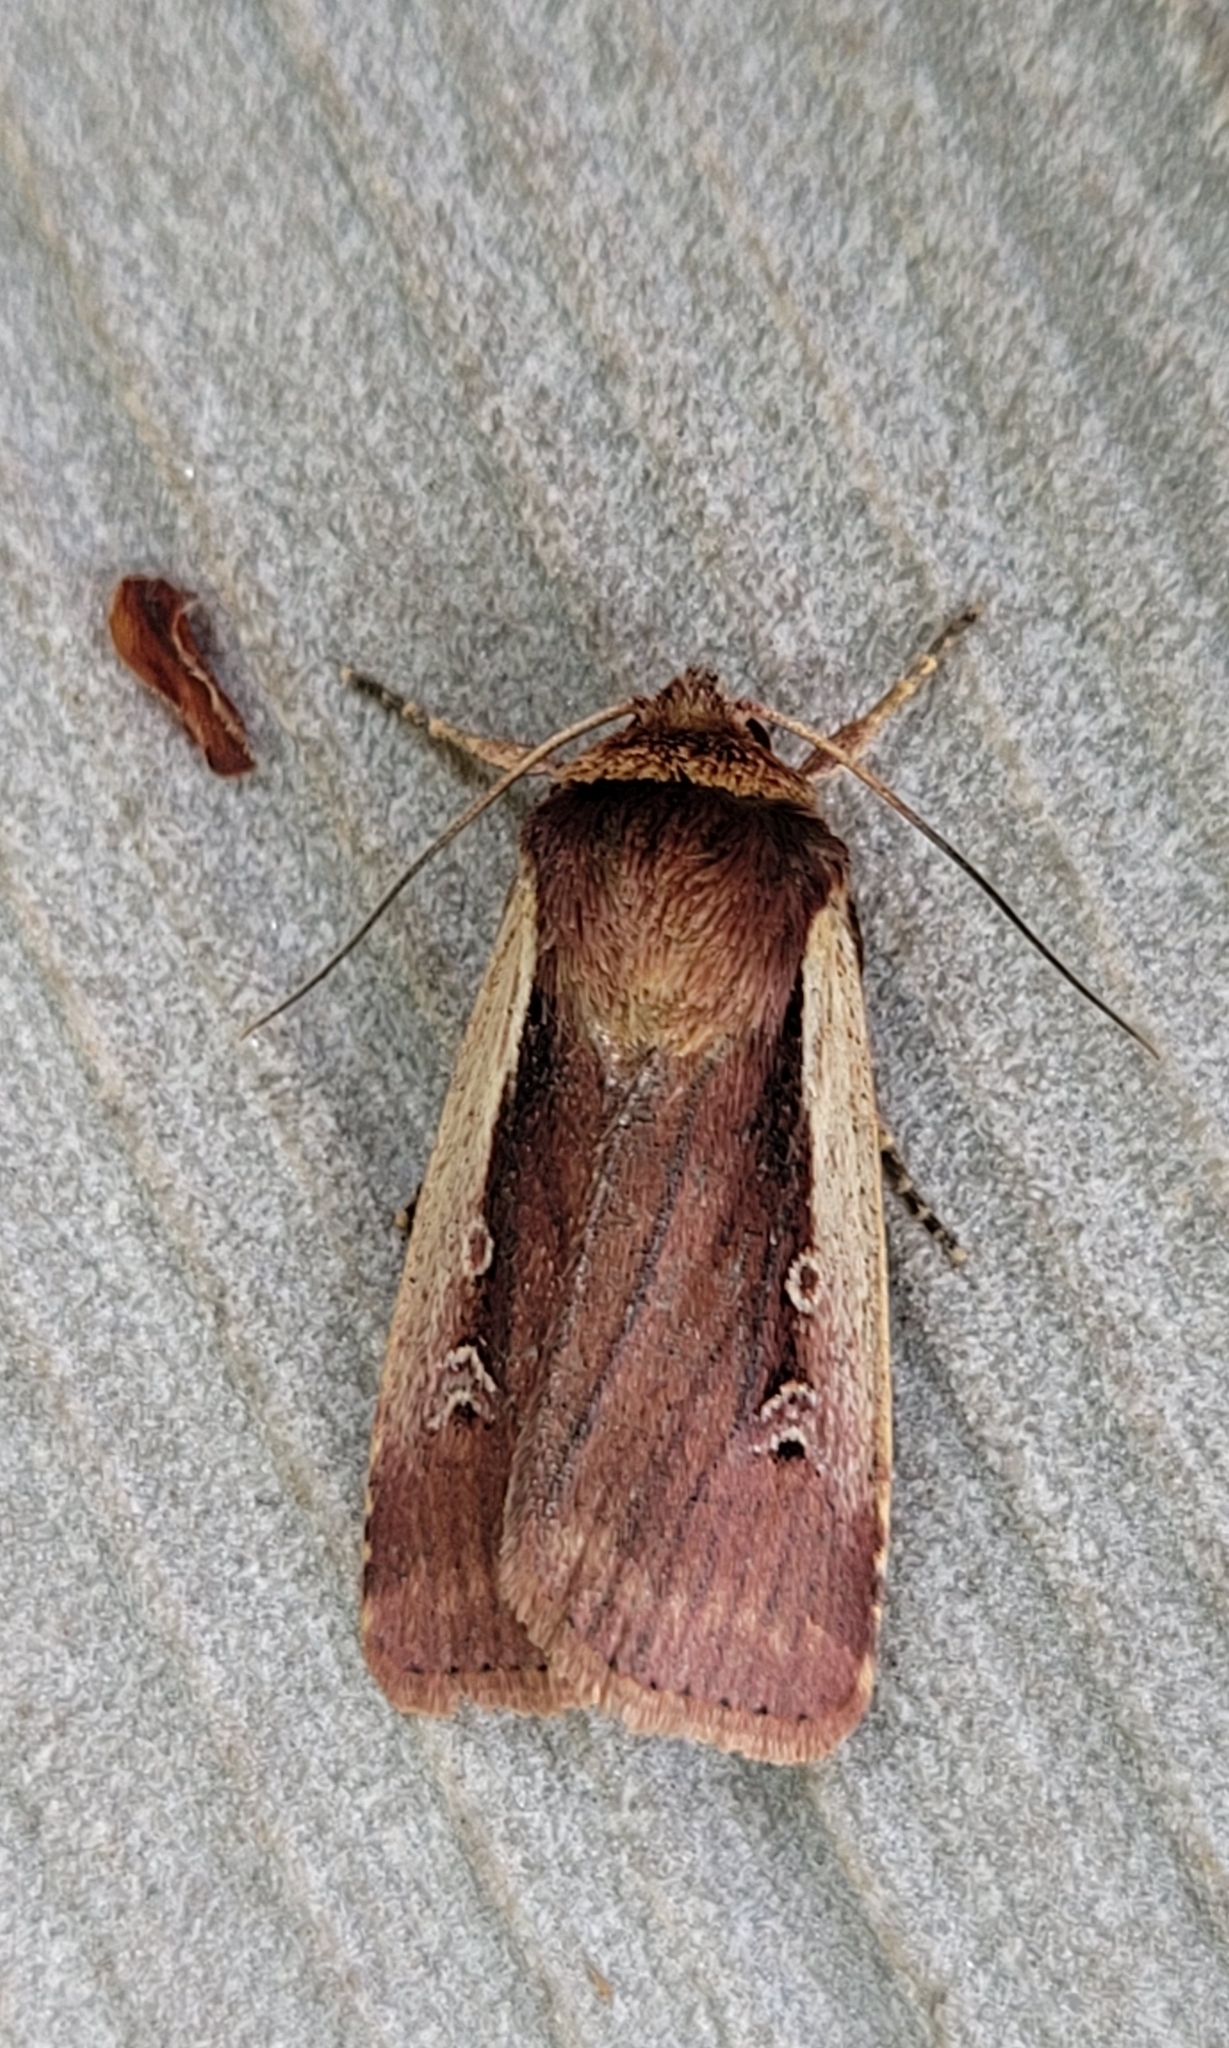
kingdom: Animalia
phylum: Arthropoda
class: Insecta
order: Lepidoptera
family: Noctuidae
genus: Ochropleura
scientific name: Ochropleura plecta
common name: Flame shoulder
